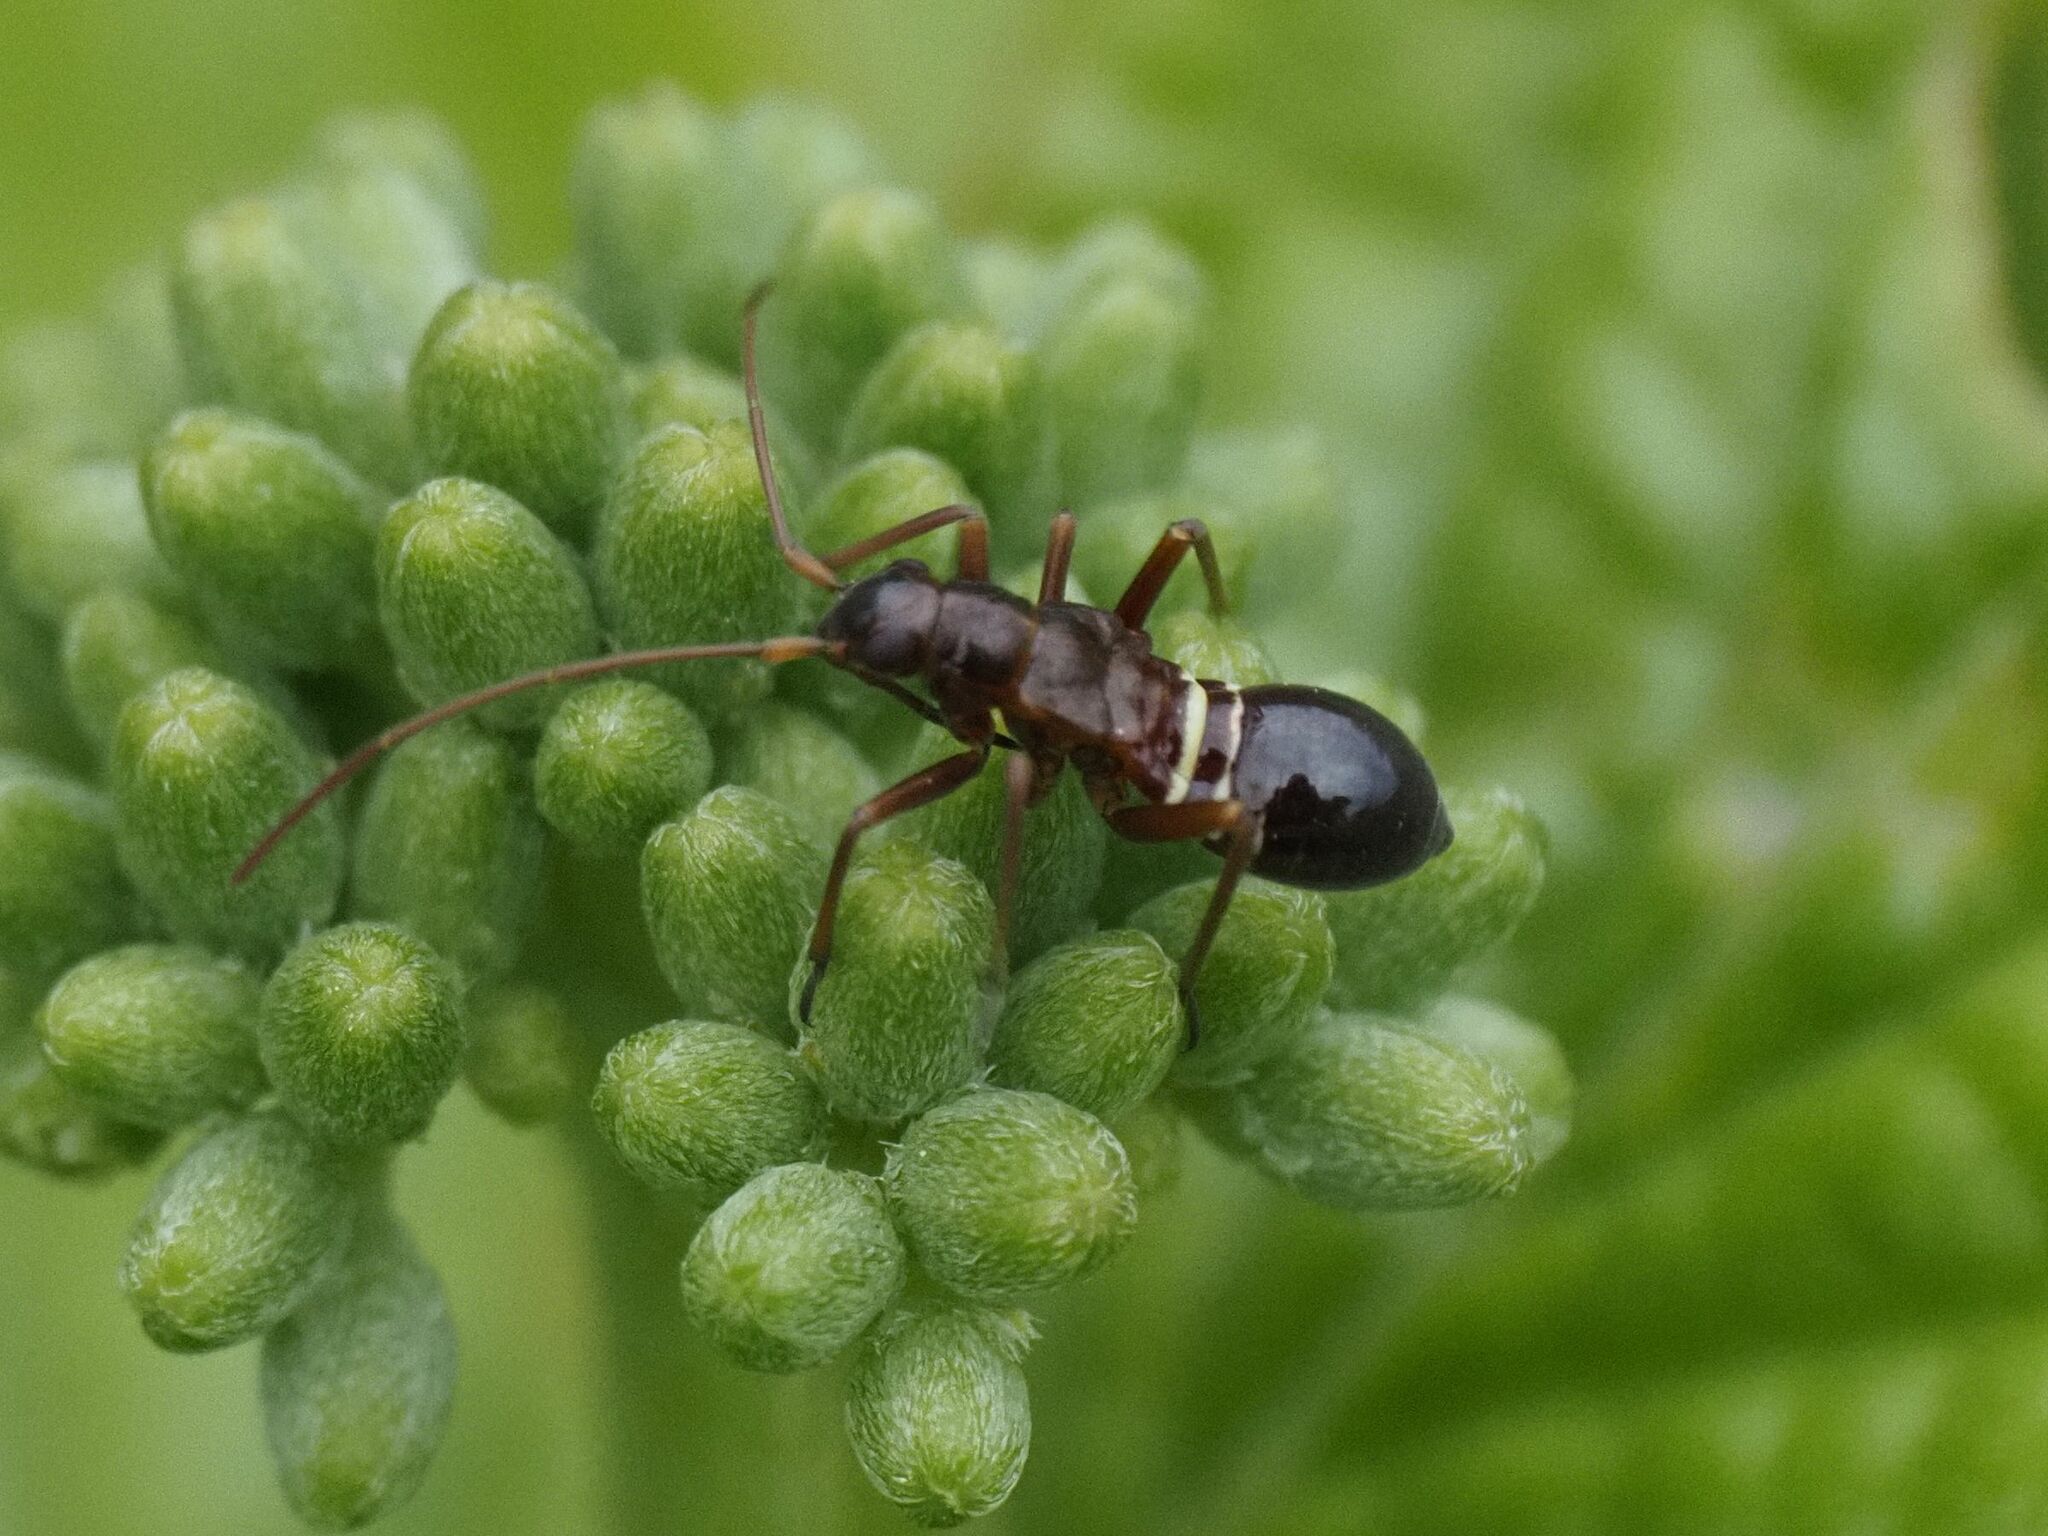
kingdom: Animalia
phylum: Arthropoda
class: Insecta
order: Hemiptera
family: Miridae
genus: Miris
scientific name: Miris striatus
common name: Fine streaked bugkin
